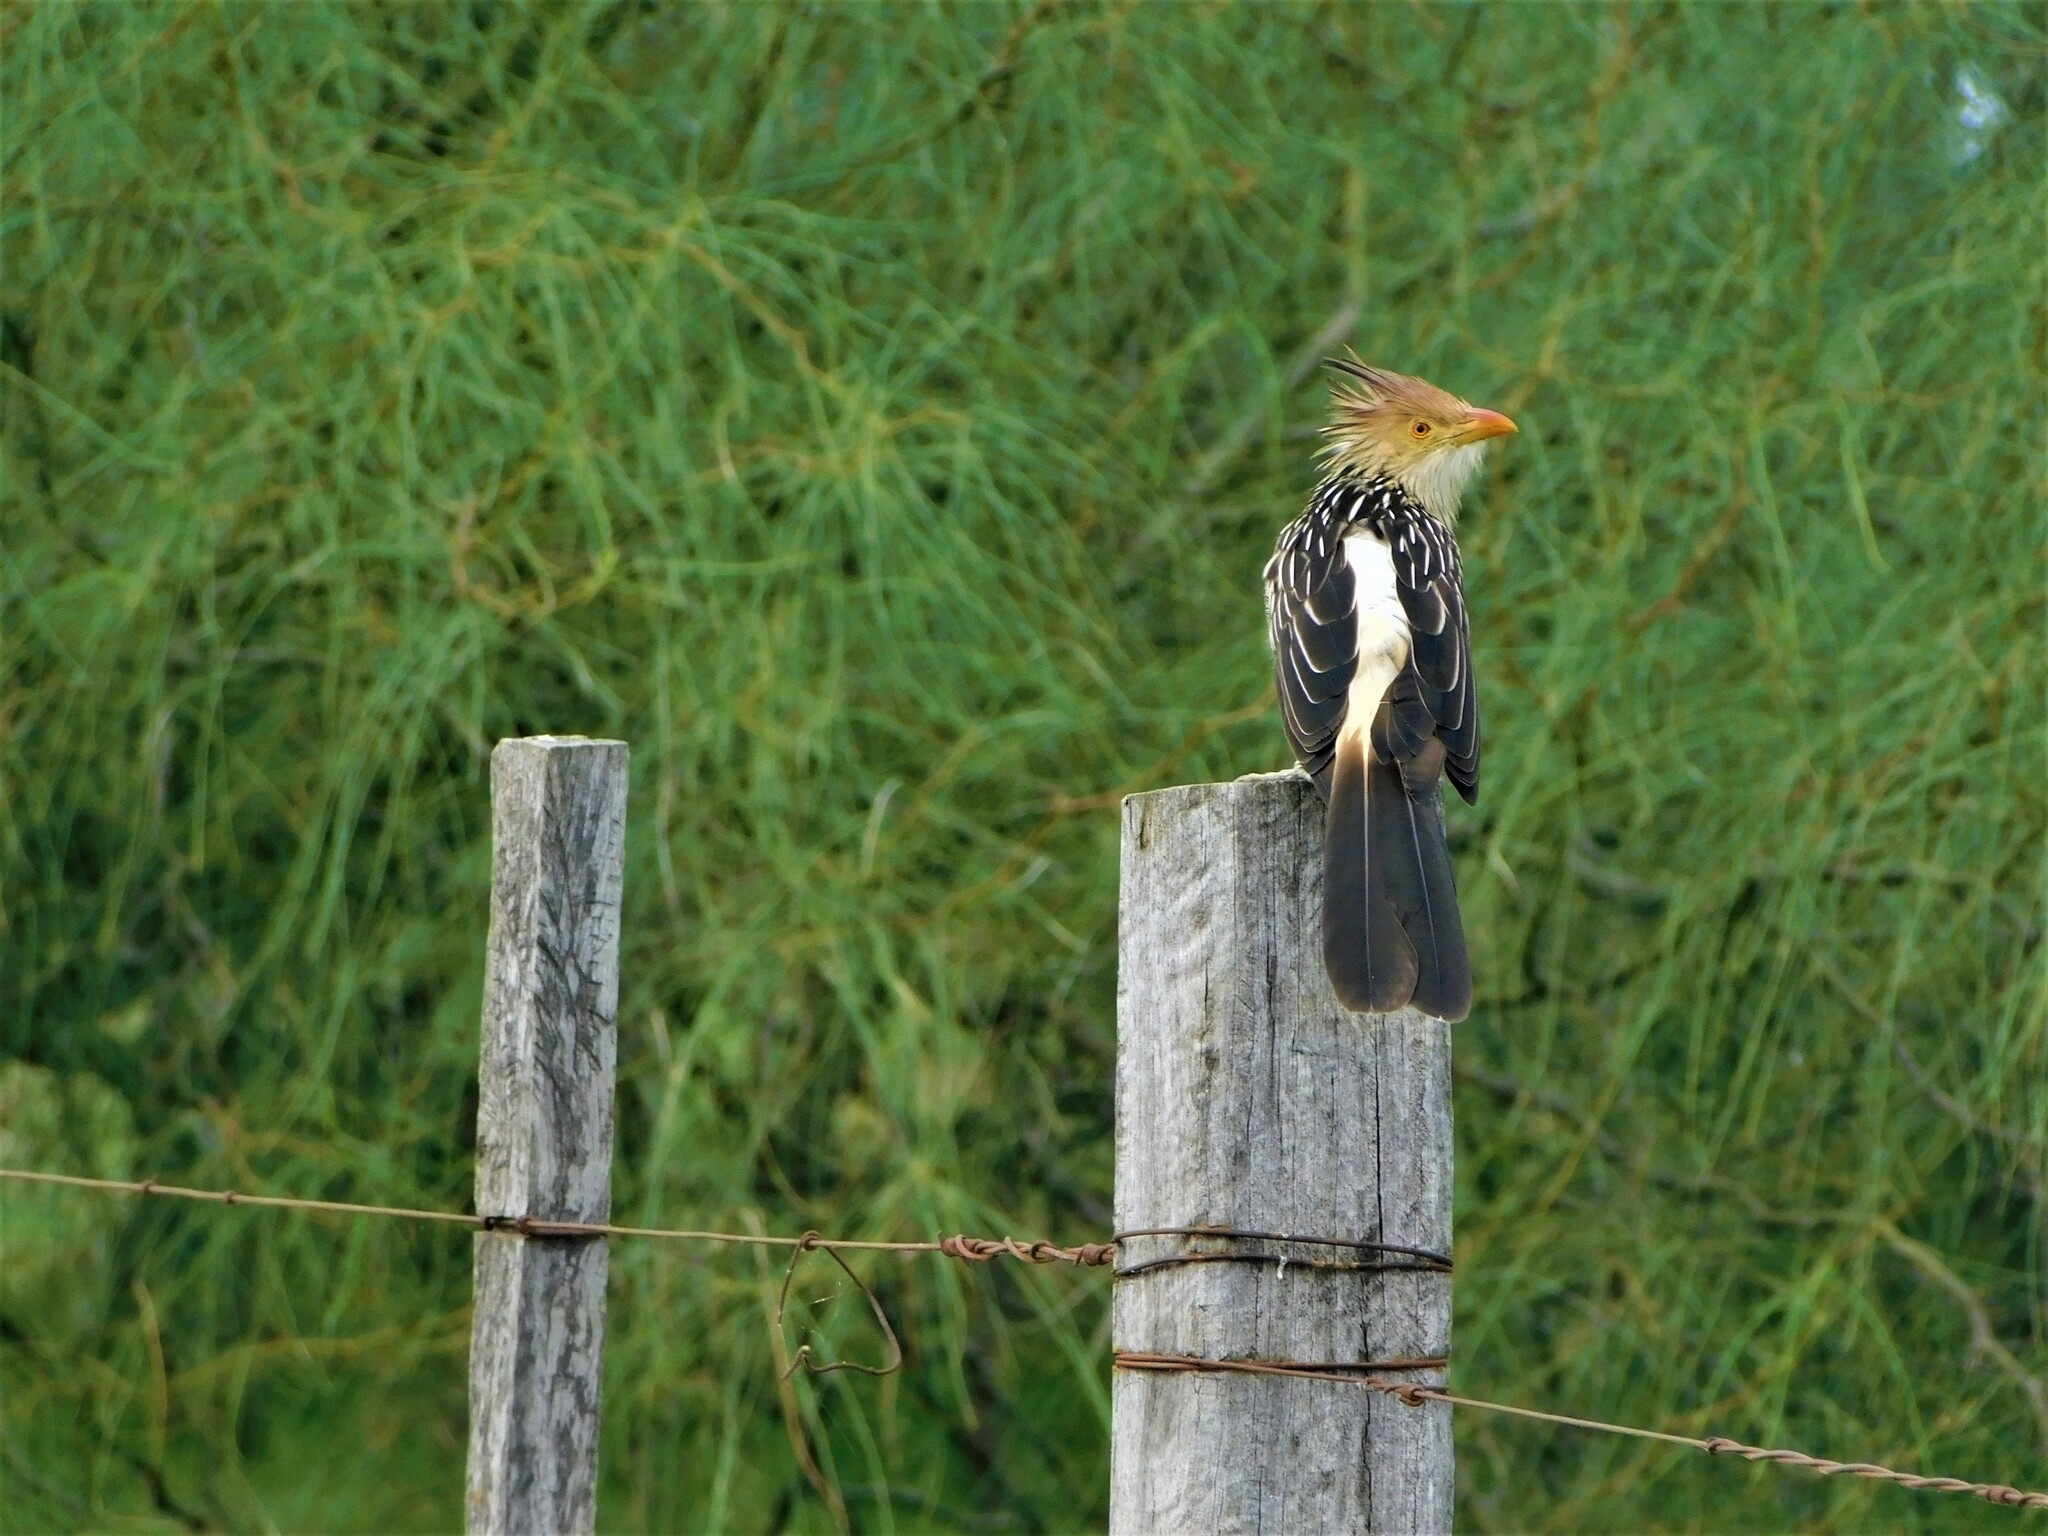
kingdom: Animalia
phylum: Chordata
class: Aves
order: Cuculiformes
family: Cuculidae
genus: Guira
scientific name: Guira guira
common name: Guira cuckoo
